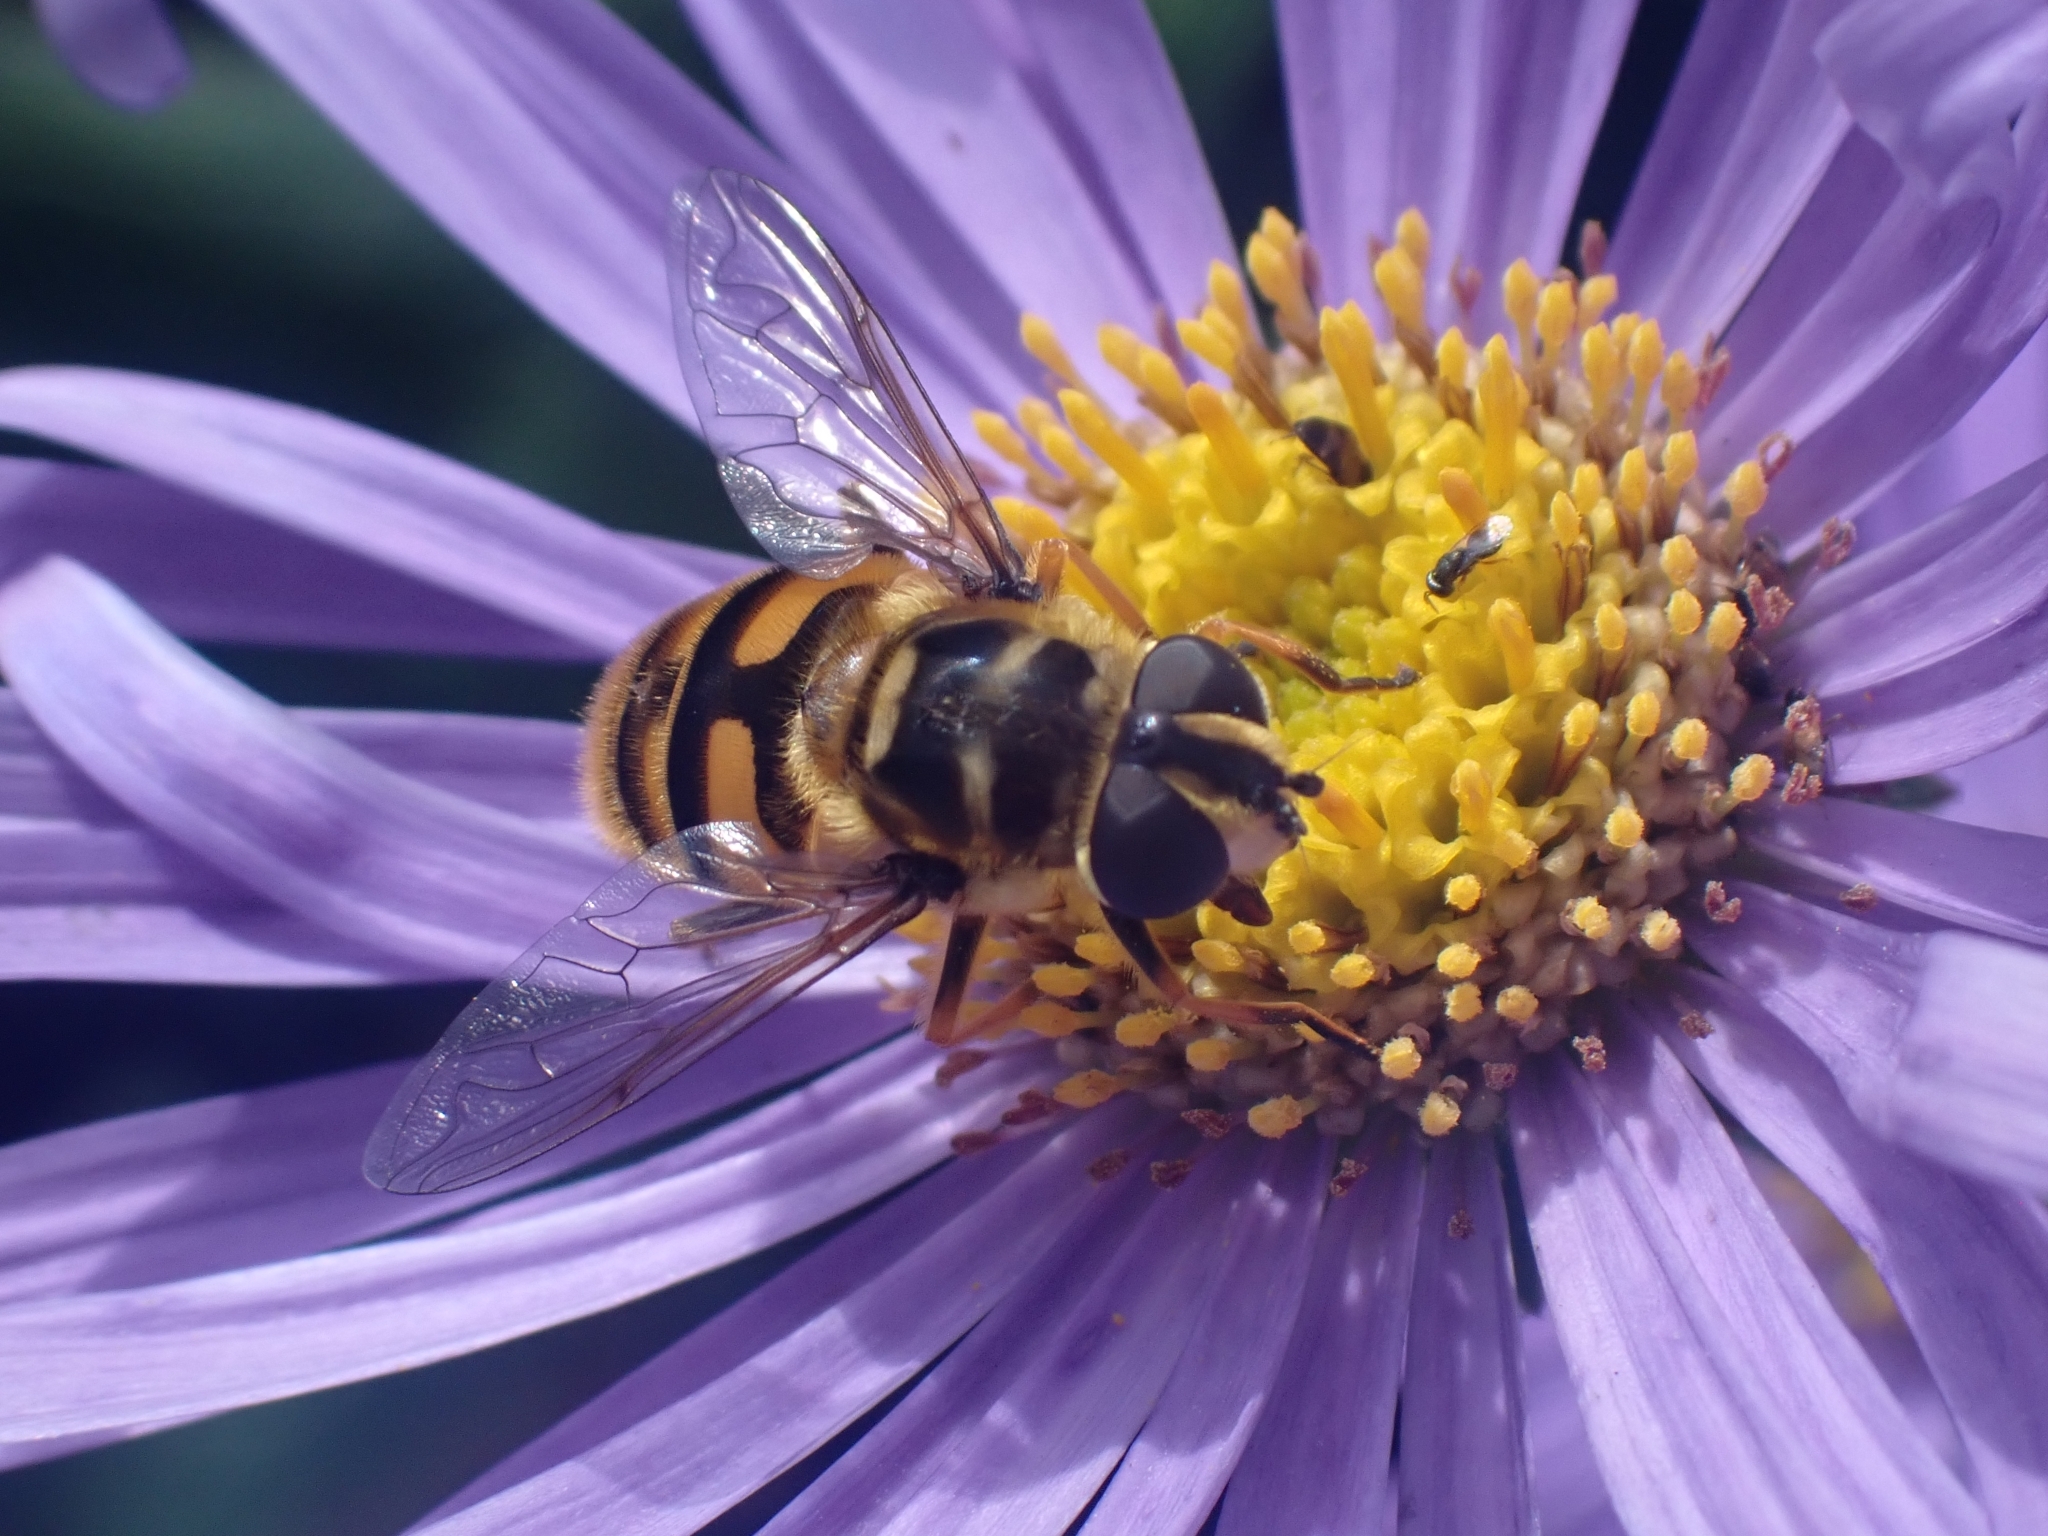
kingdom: Animalia
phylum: Arthropoda
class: Insecta
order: Diptera
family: Syrphidae
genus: Myathropa
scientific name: Myathropa florea
